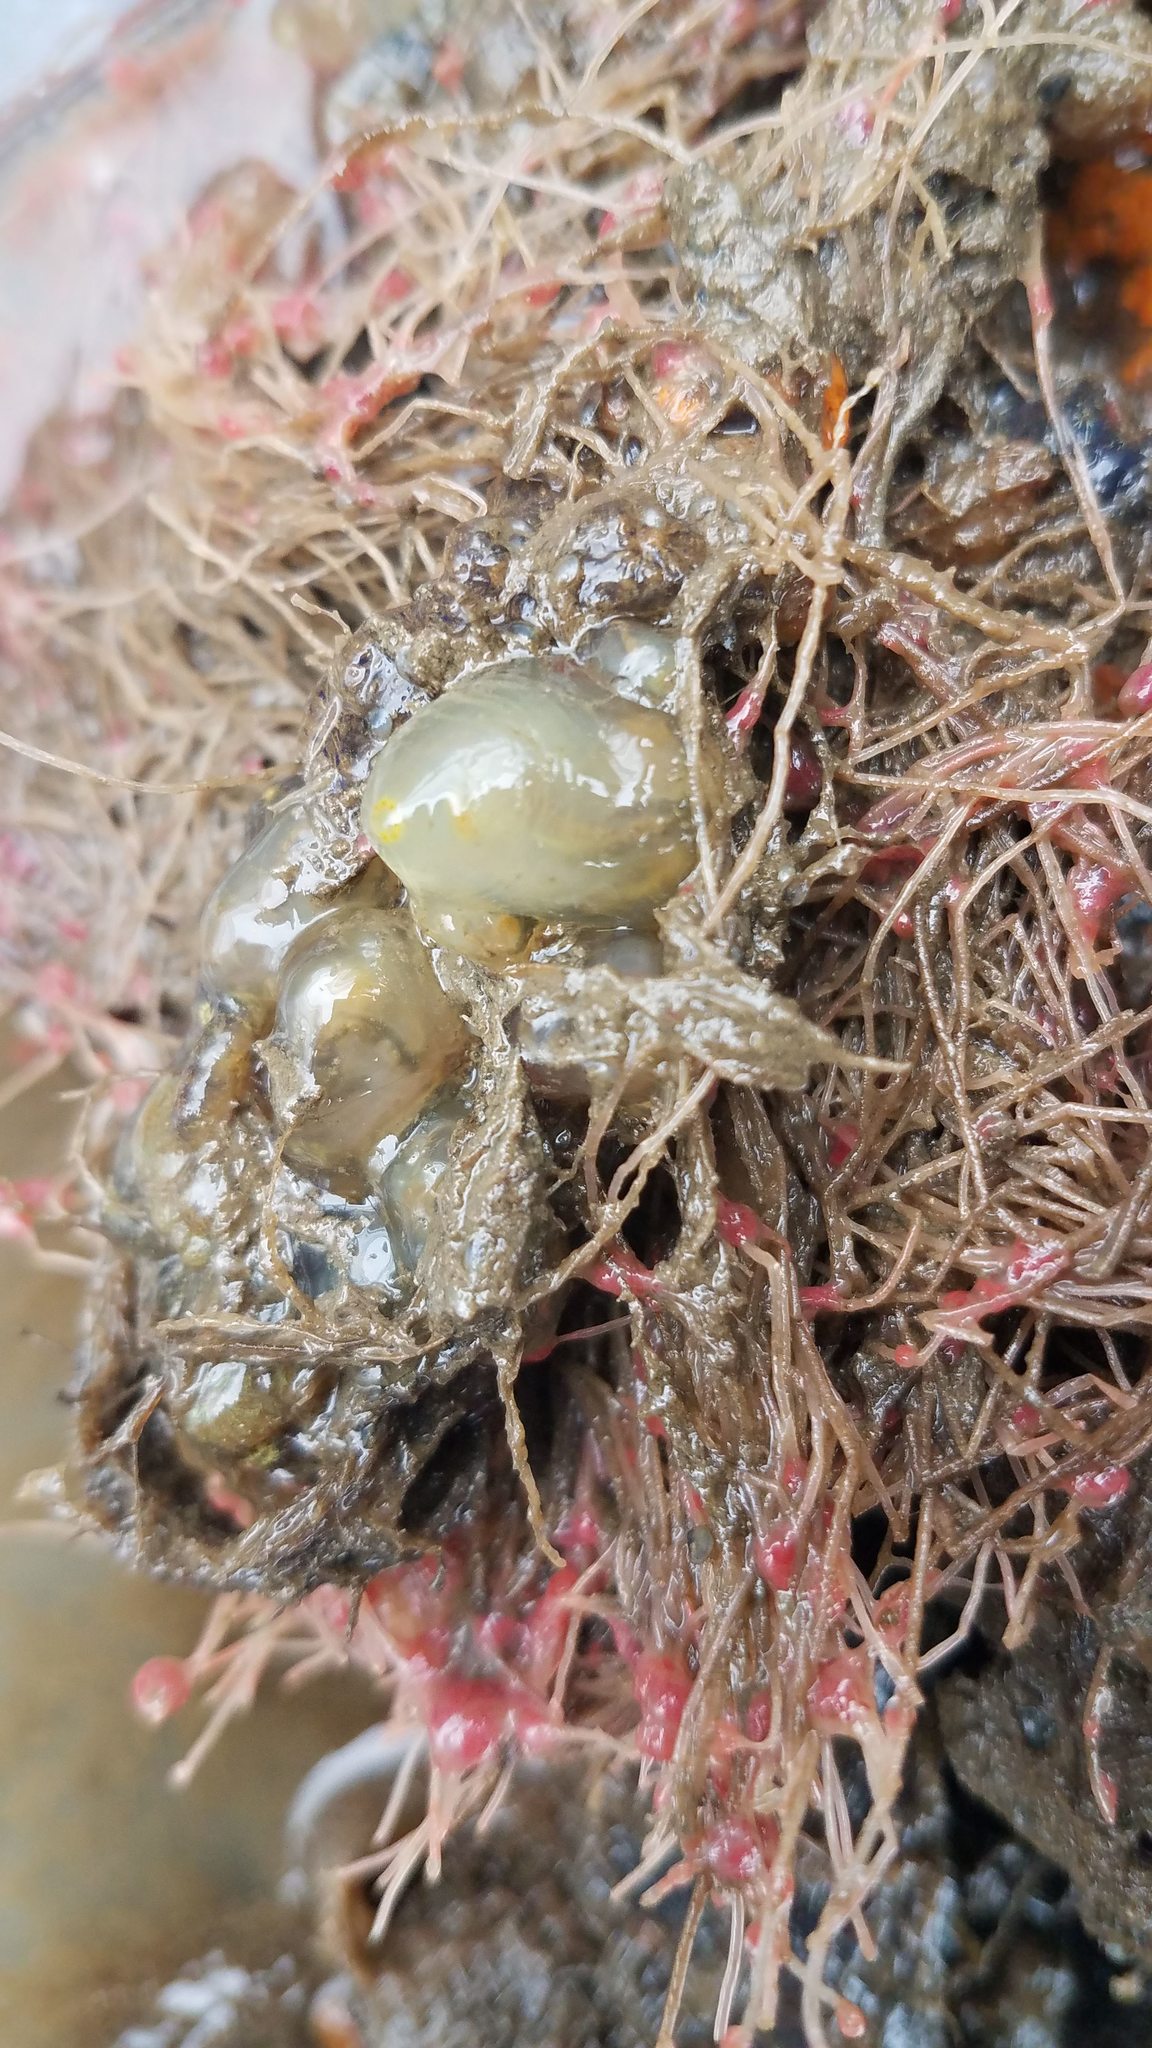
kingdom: Animalia
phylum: Chordata
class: Ascidiacea
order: Phlebobranchia
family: Cionidae
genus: Ciona
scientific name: Ciona intestinalis
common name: Vase tunicate
